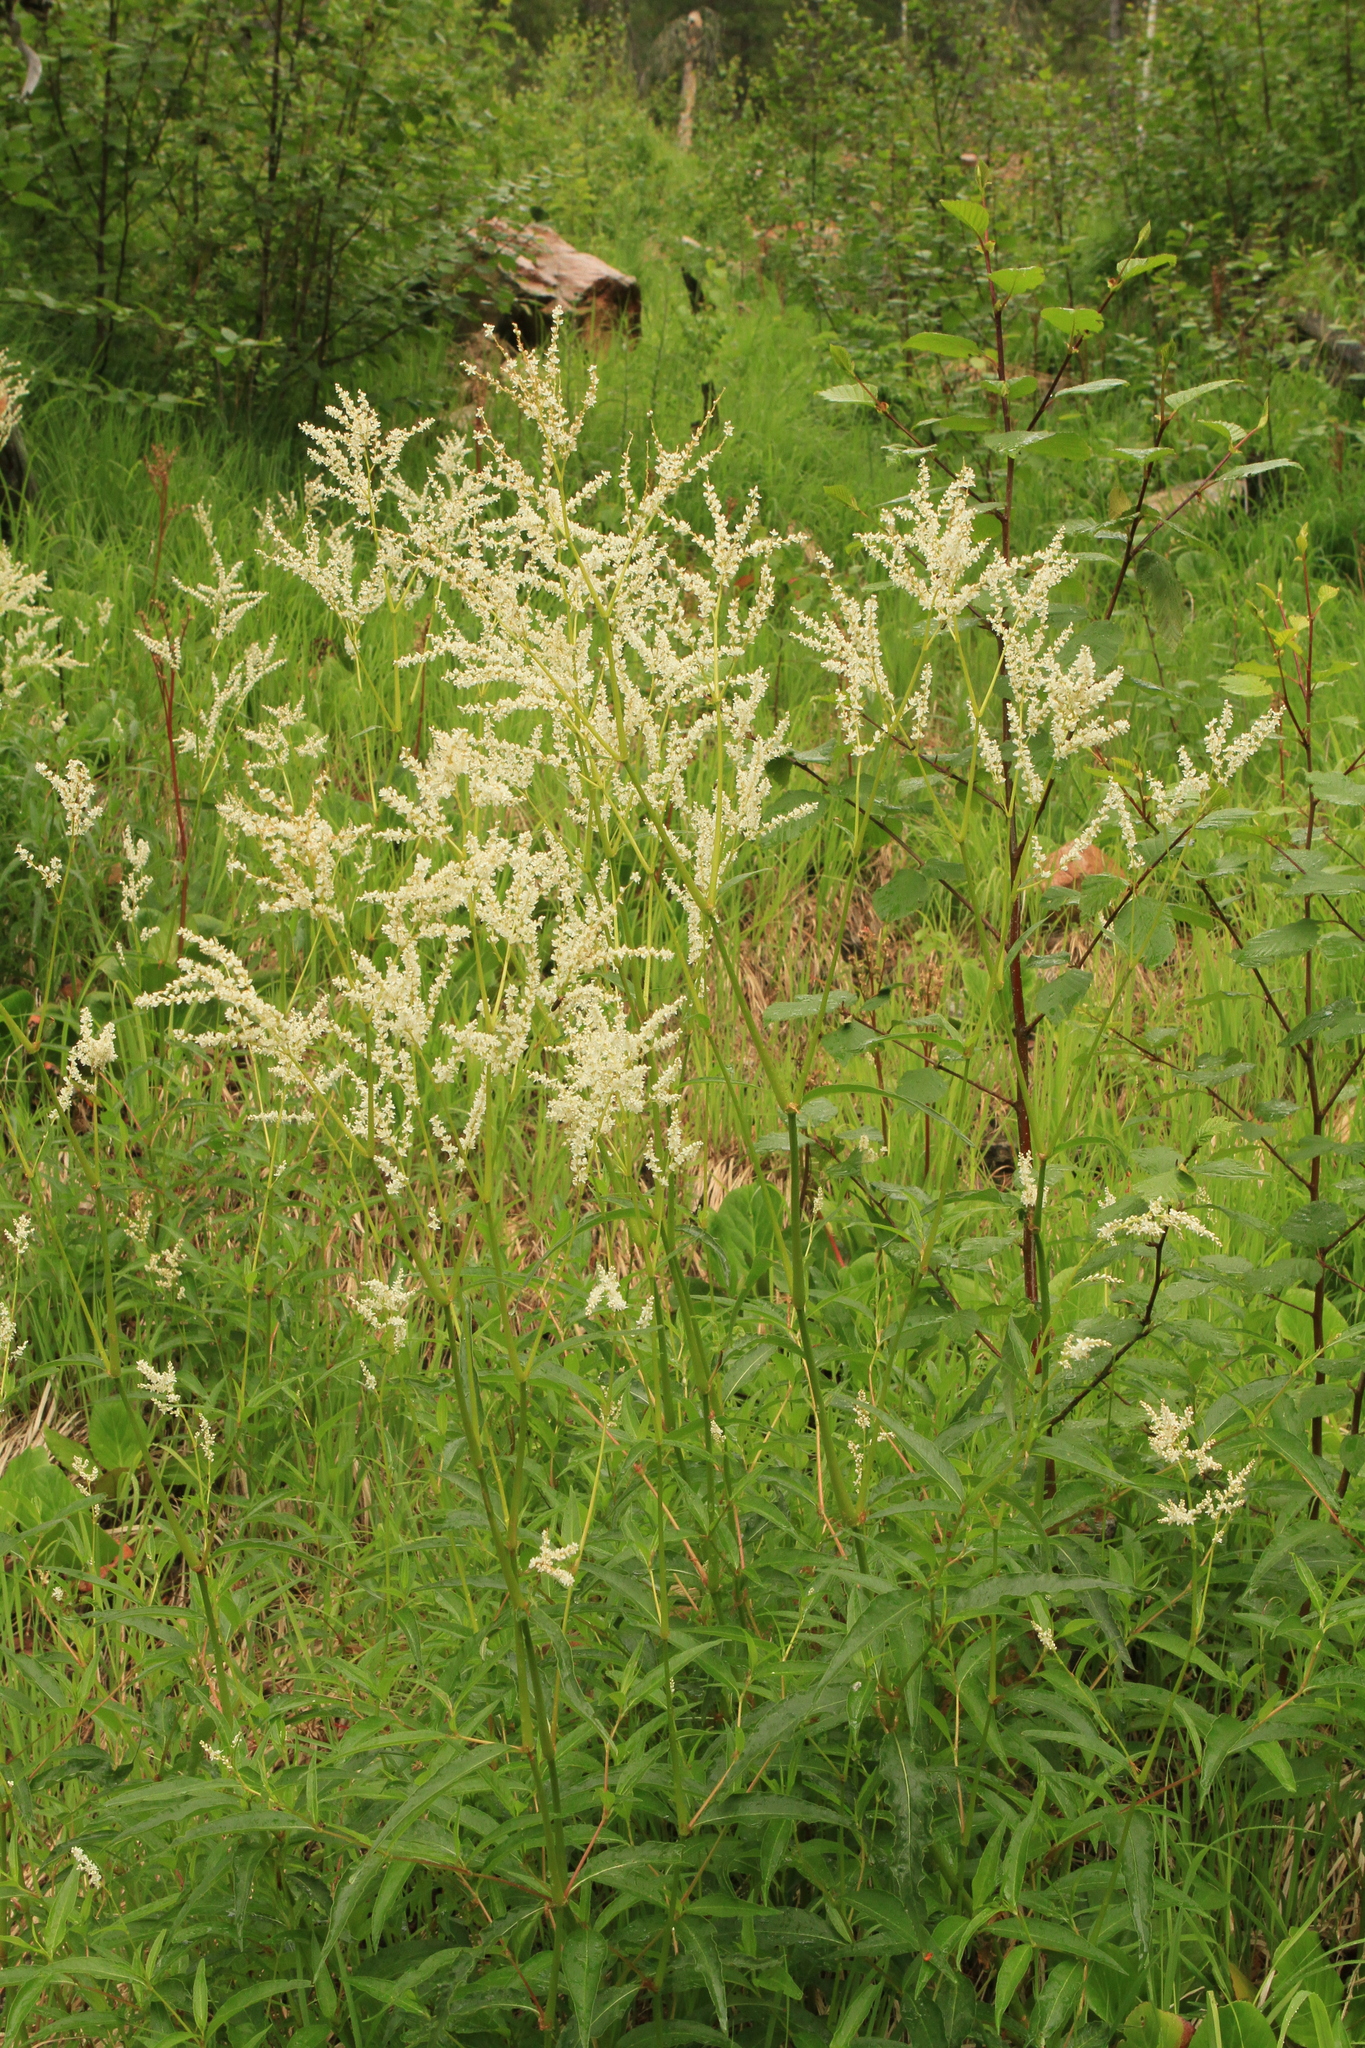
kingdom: Plantae
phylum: Tracheophyta
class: Magnoliopsida
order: Caryophyllales
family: Polygonaceae
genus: Koenigia
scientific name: Koenigia alpina
